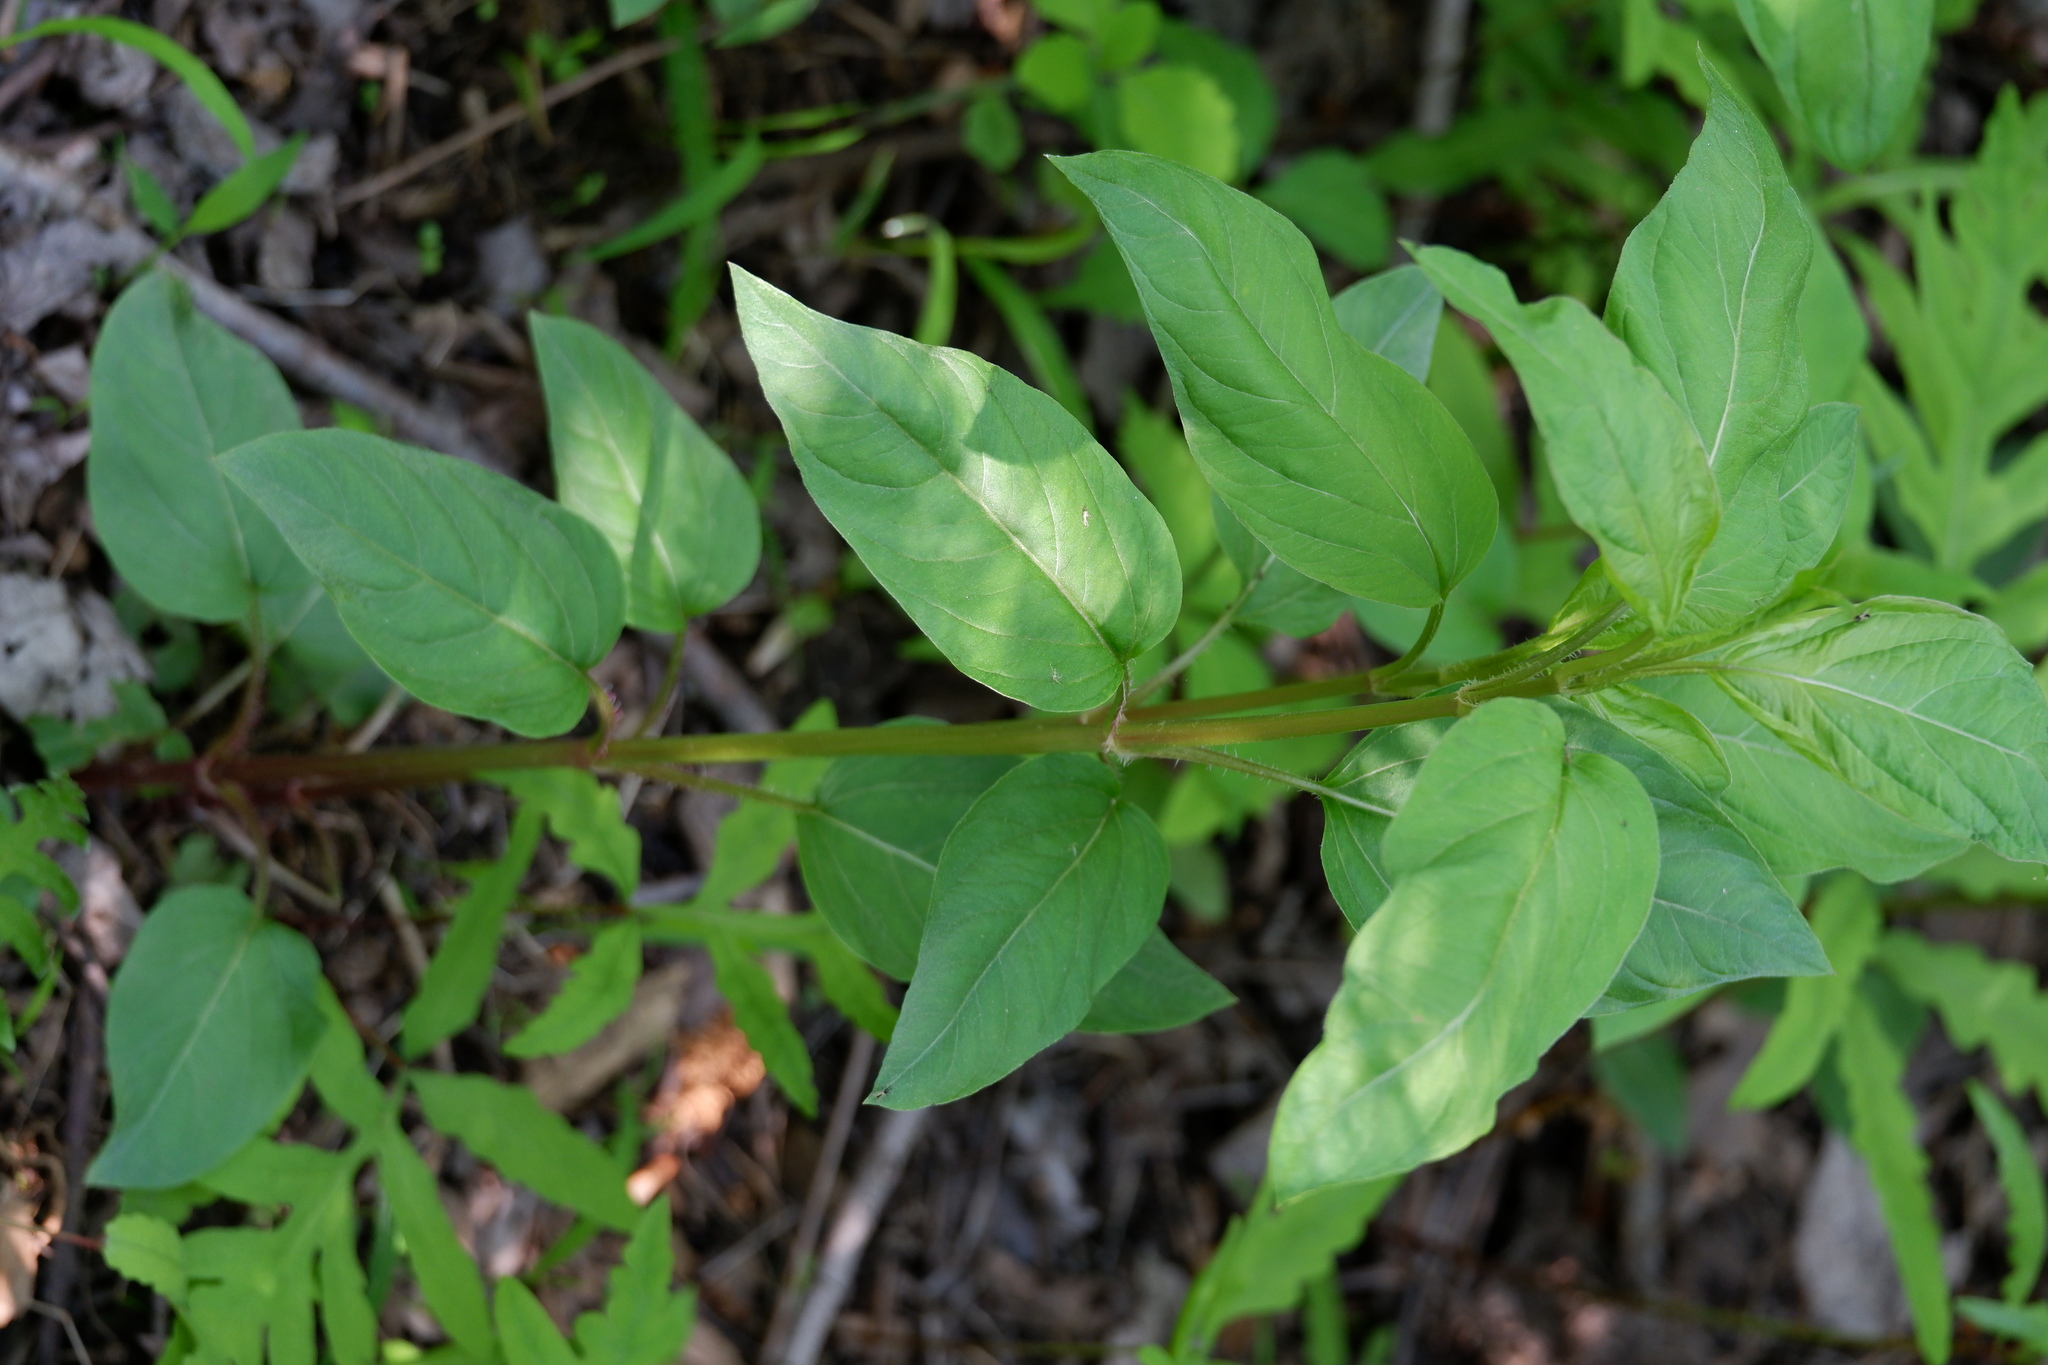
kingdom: Plantae
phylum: Tracheophyta
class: Magnoliopsida
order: Ericales
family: Primulaceae
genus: Lysimachia
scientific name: Lysimachia ciliata
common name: Fringed loosestrife
